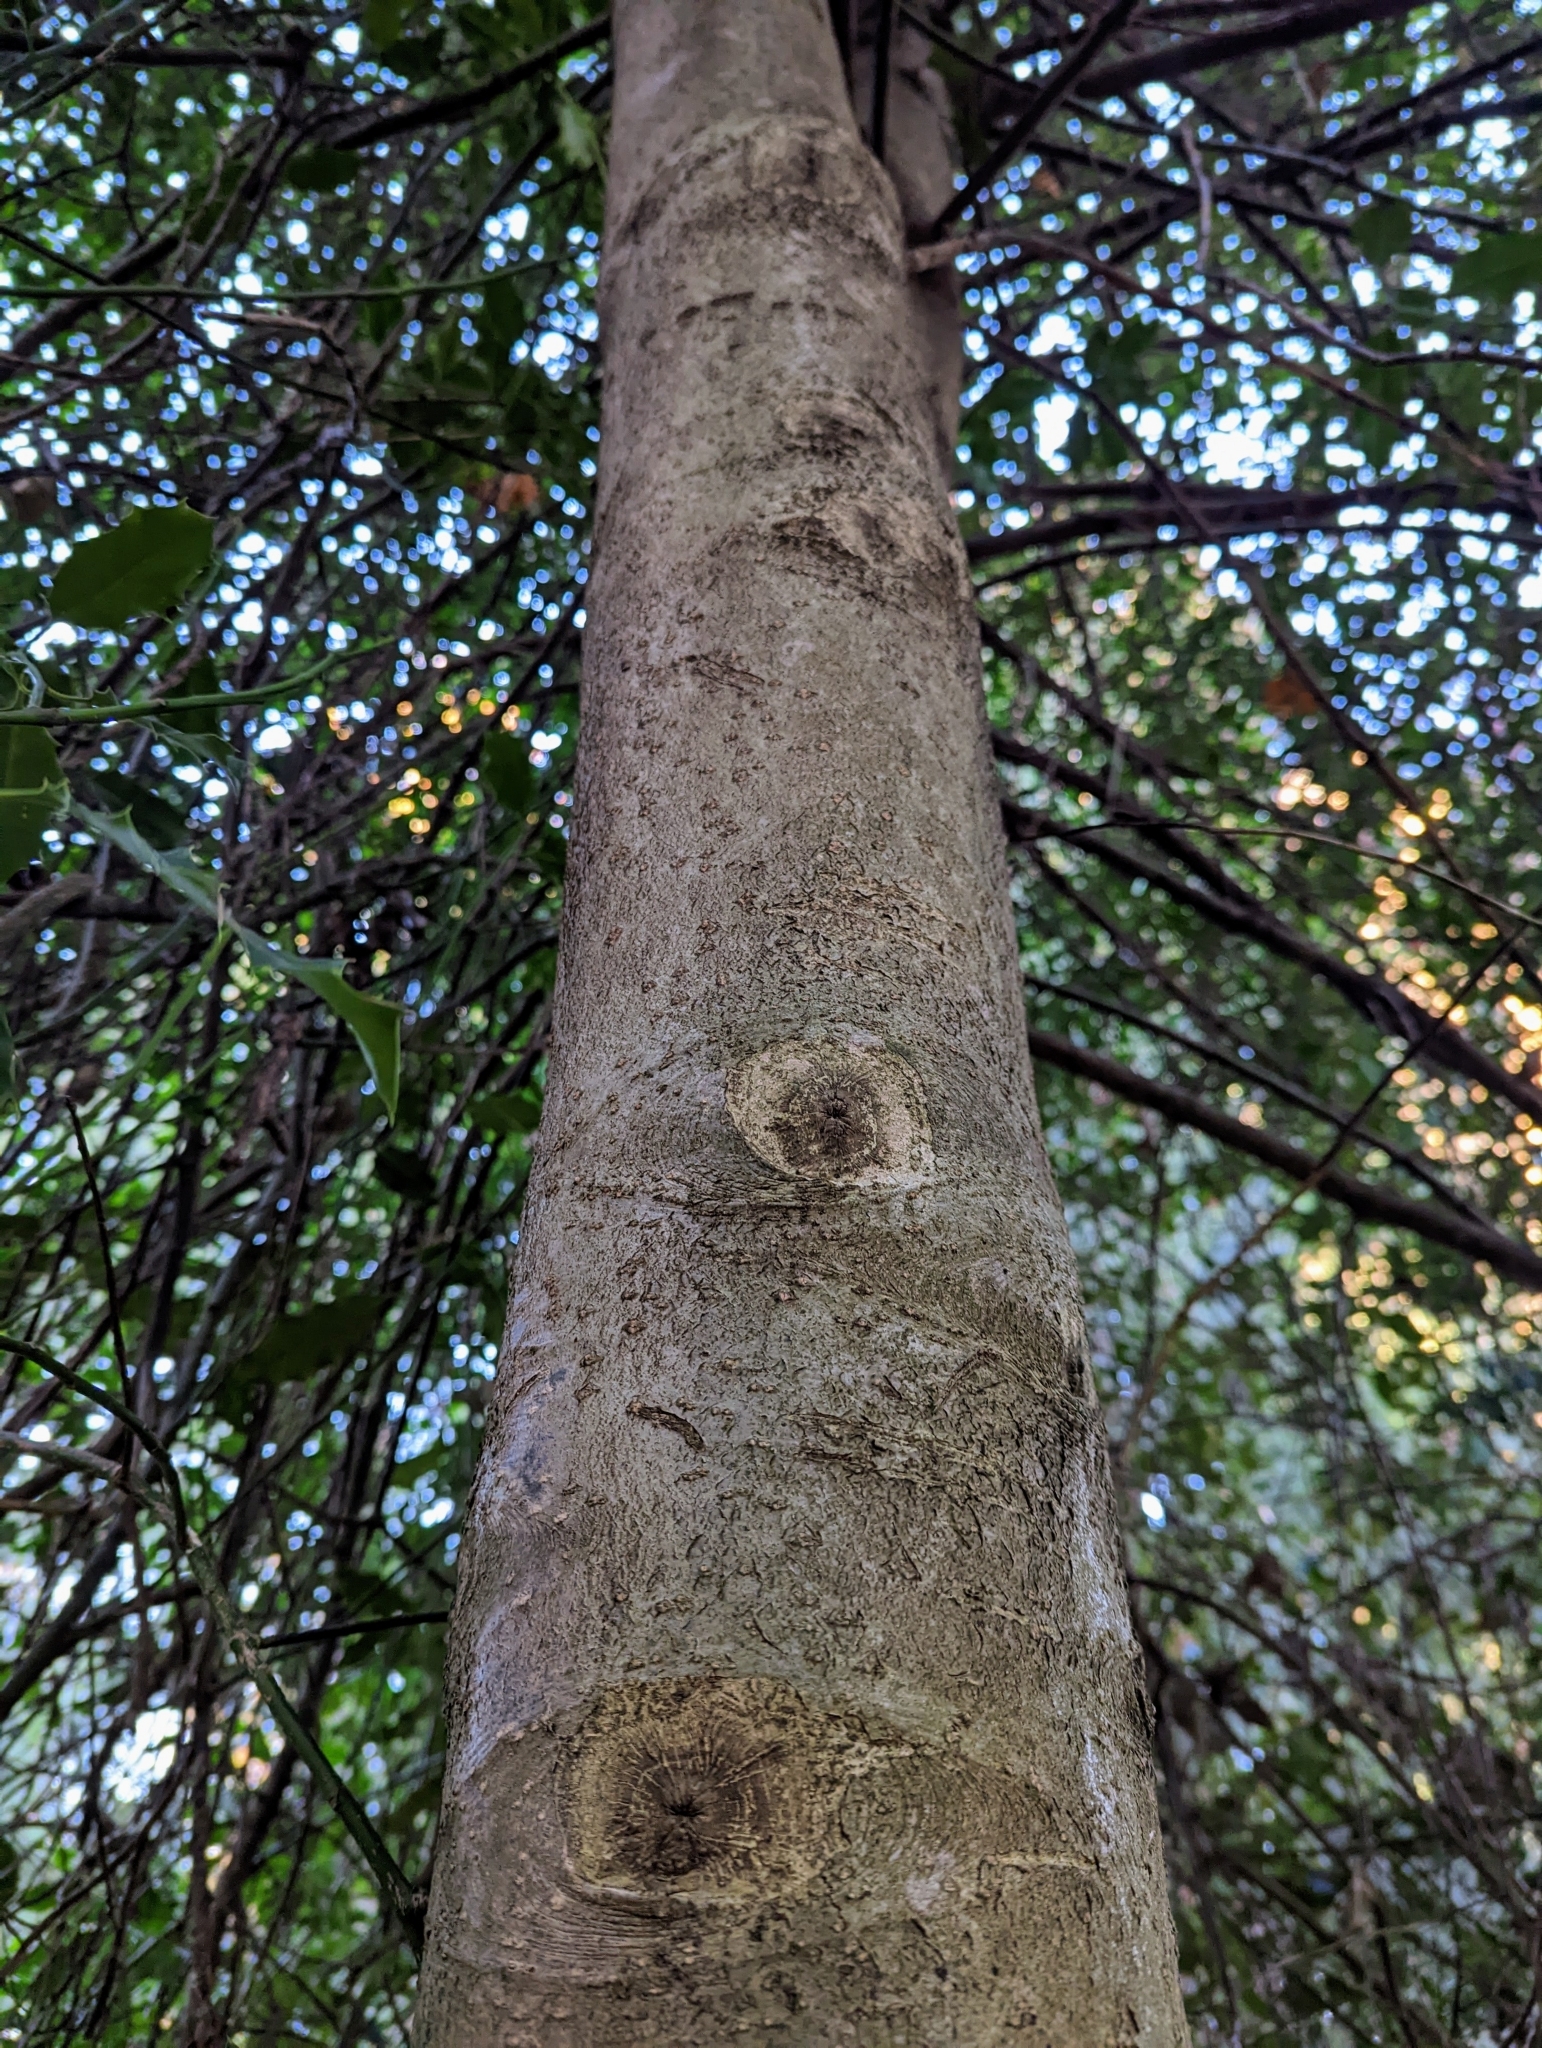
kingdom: Plantae
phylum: Tracheophyta
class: Magnoliopsida
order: Aquifoliales
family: Aquifoliaceae
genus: Ilex
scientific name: Ilex aquifolium
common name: English holly
